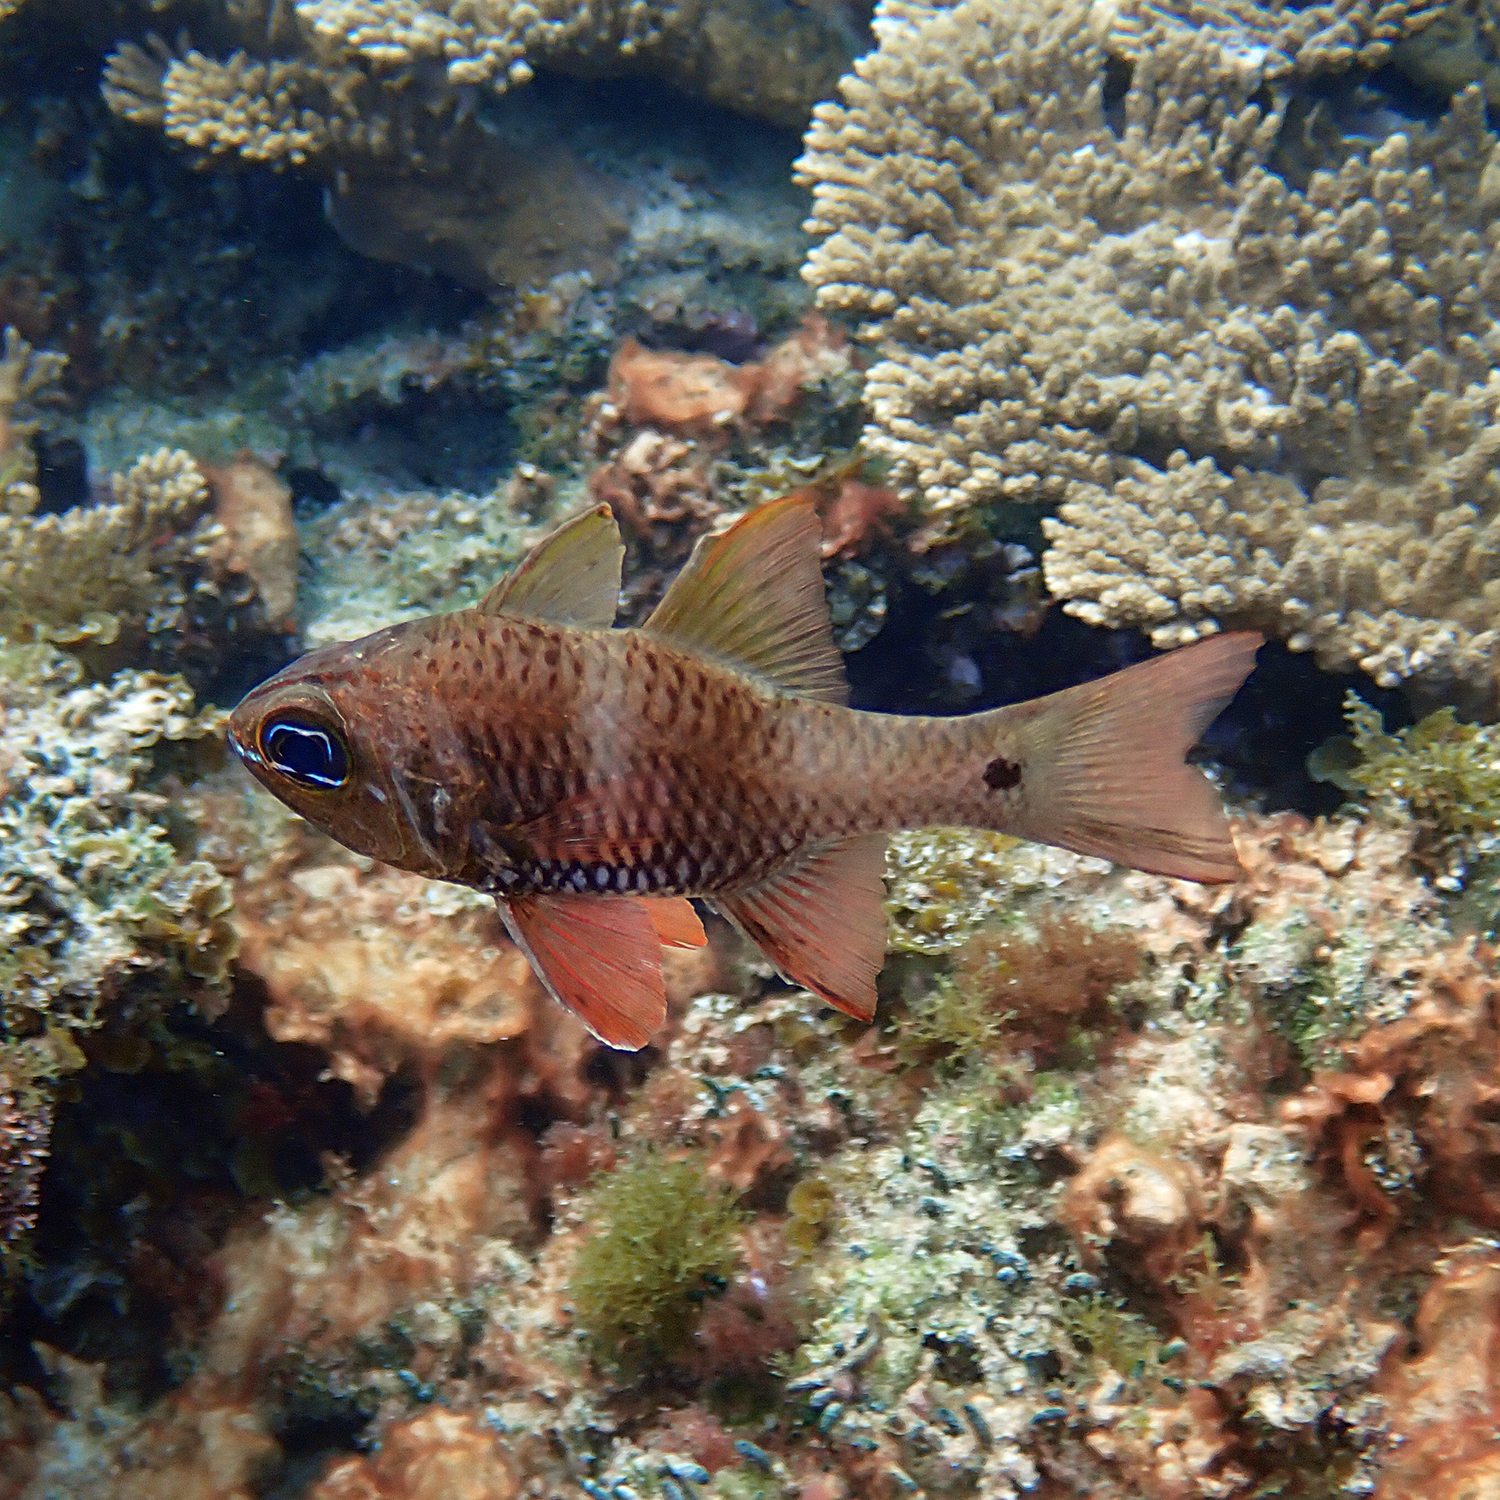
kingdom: Animalia
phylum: Chordata
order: Perciformes
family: Apogonidae
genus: Ostorhinchus
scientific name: Ostorhinchus norfolcensis
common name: Norfolk cardinalfish
